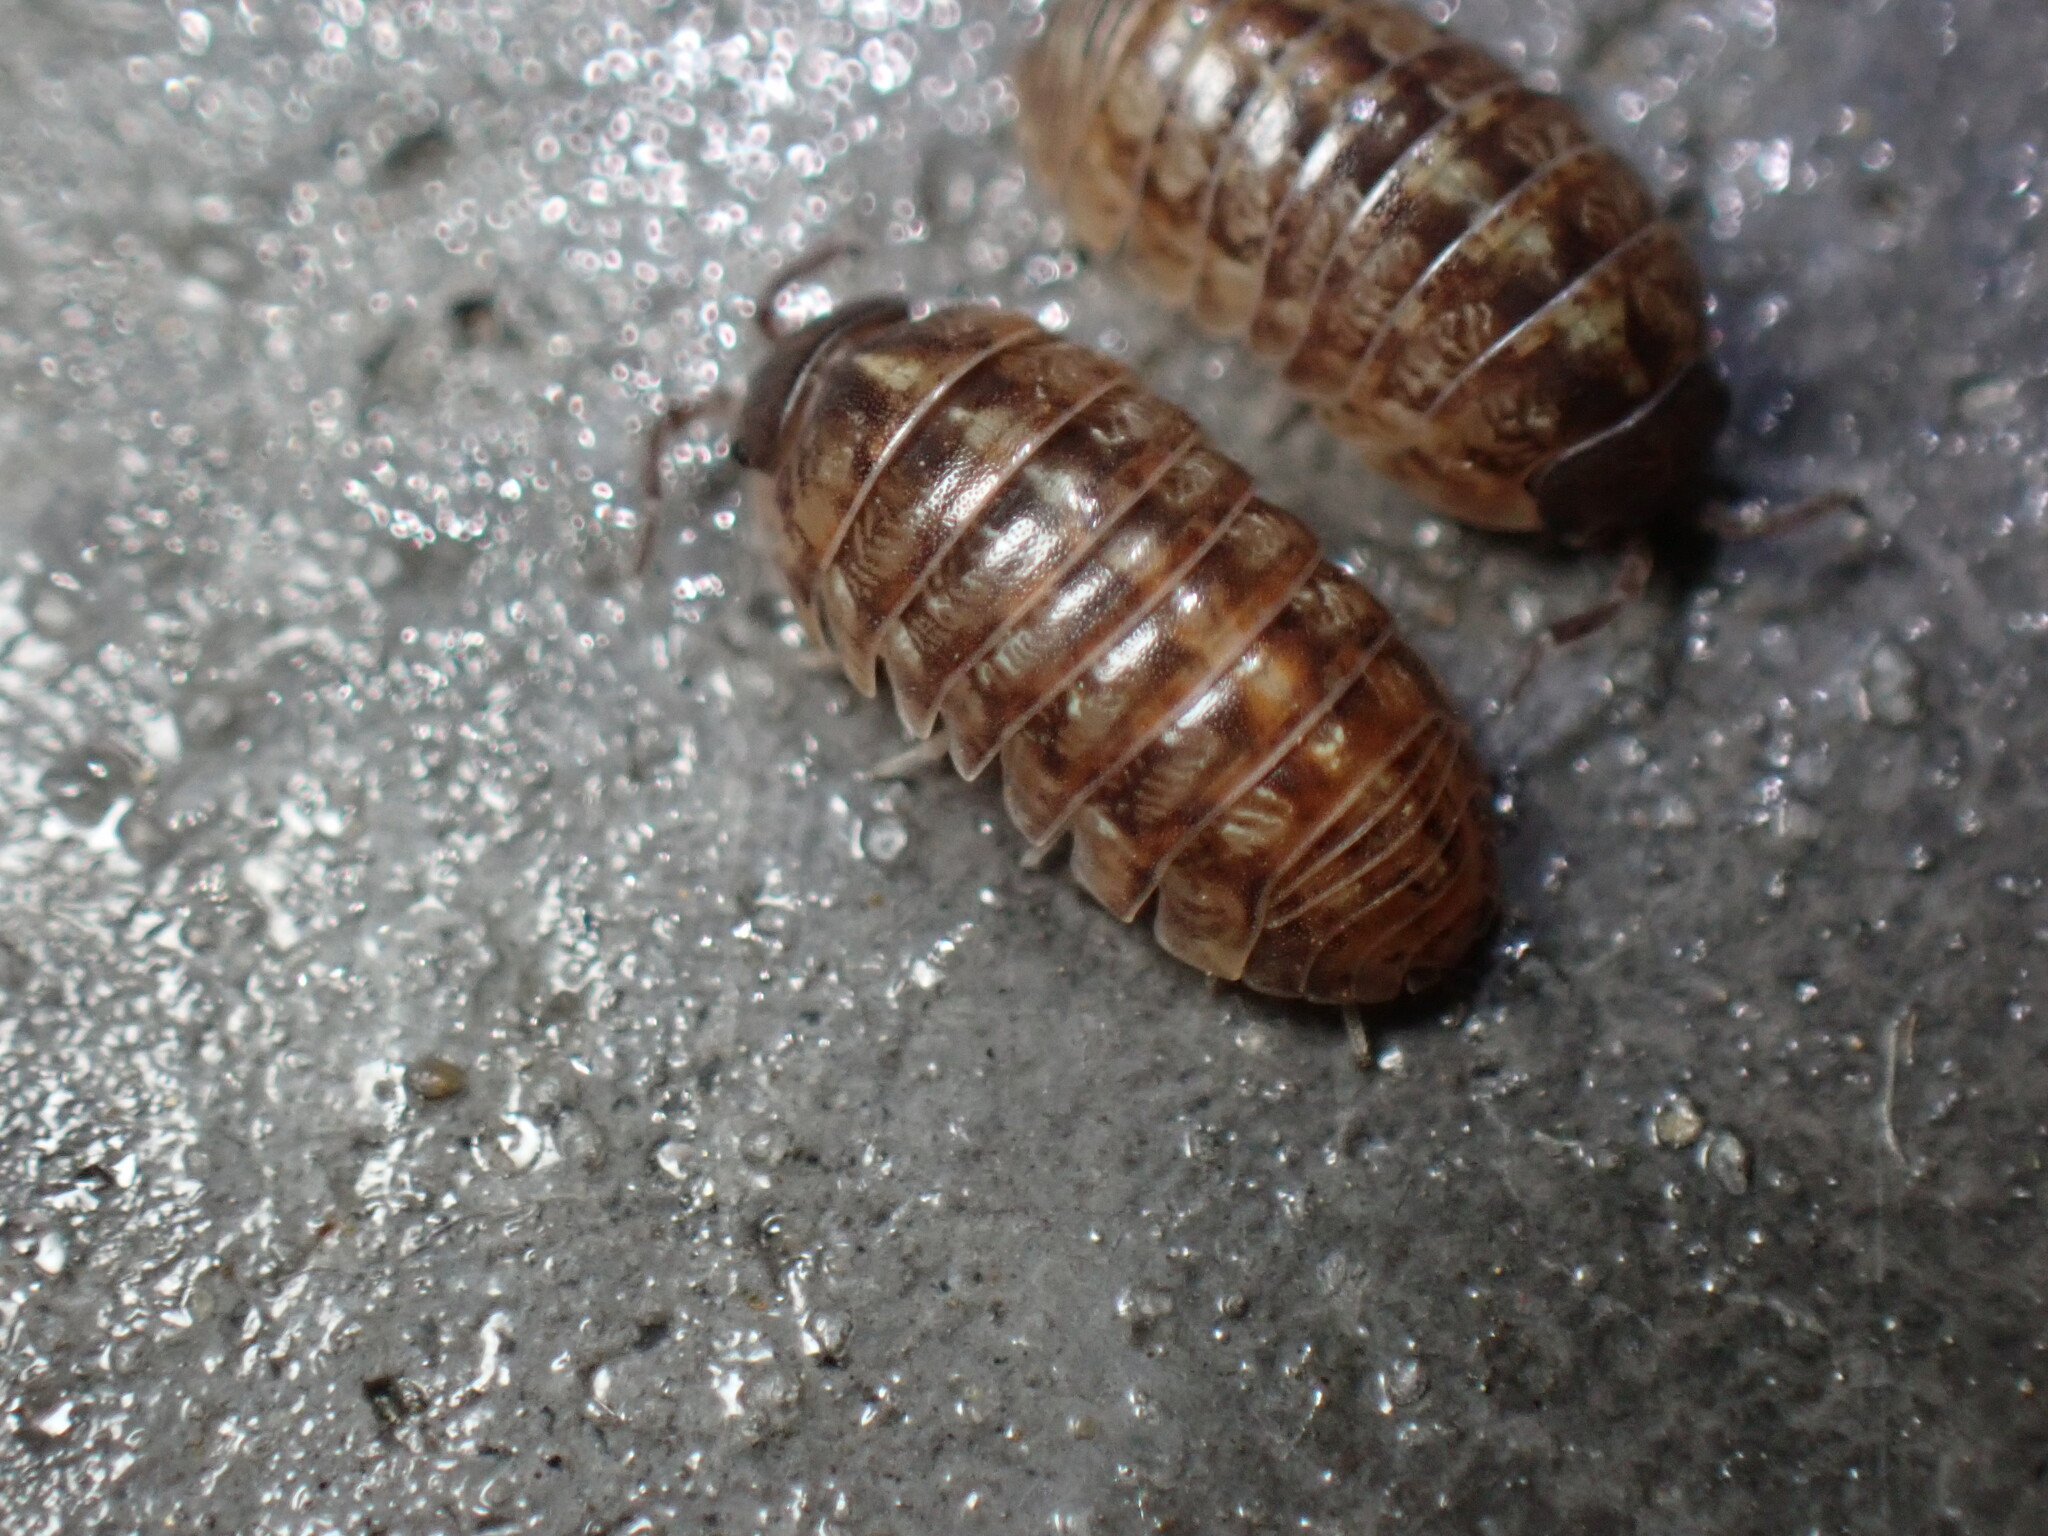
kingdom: Animalia
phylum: Arthropoda
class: Malacostraca
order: Isopoda
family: Armadillidiidae
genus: Armadillidium
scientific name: Armadillidium vulgare
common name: Common pill woodlouse
